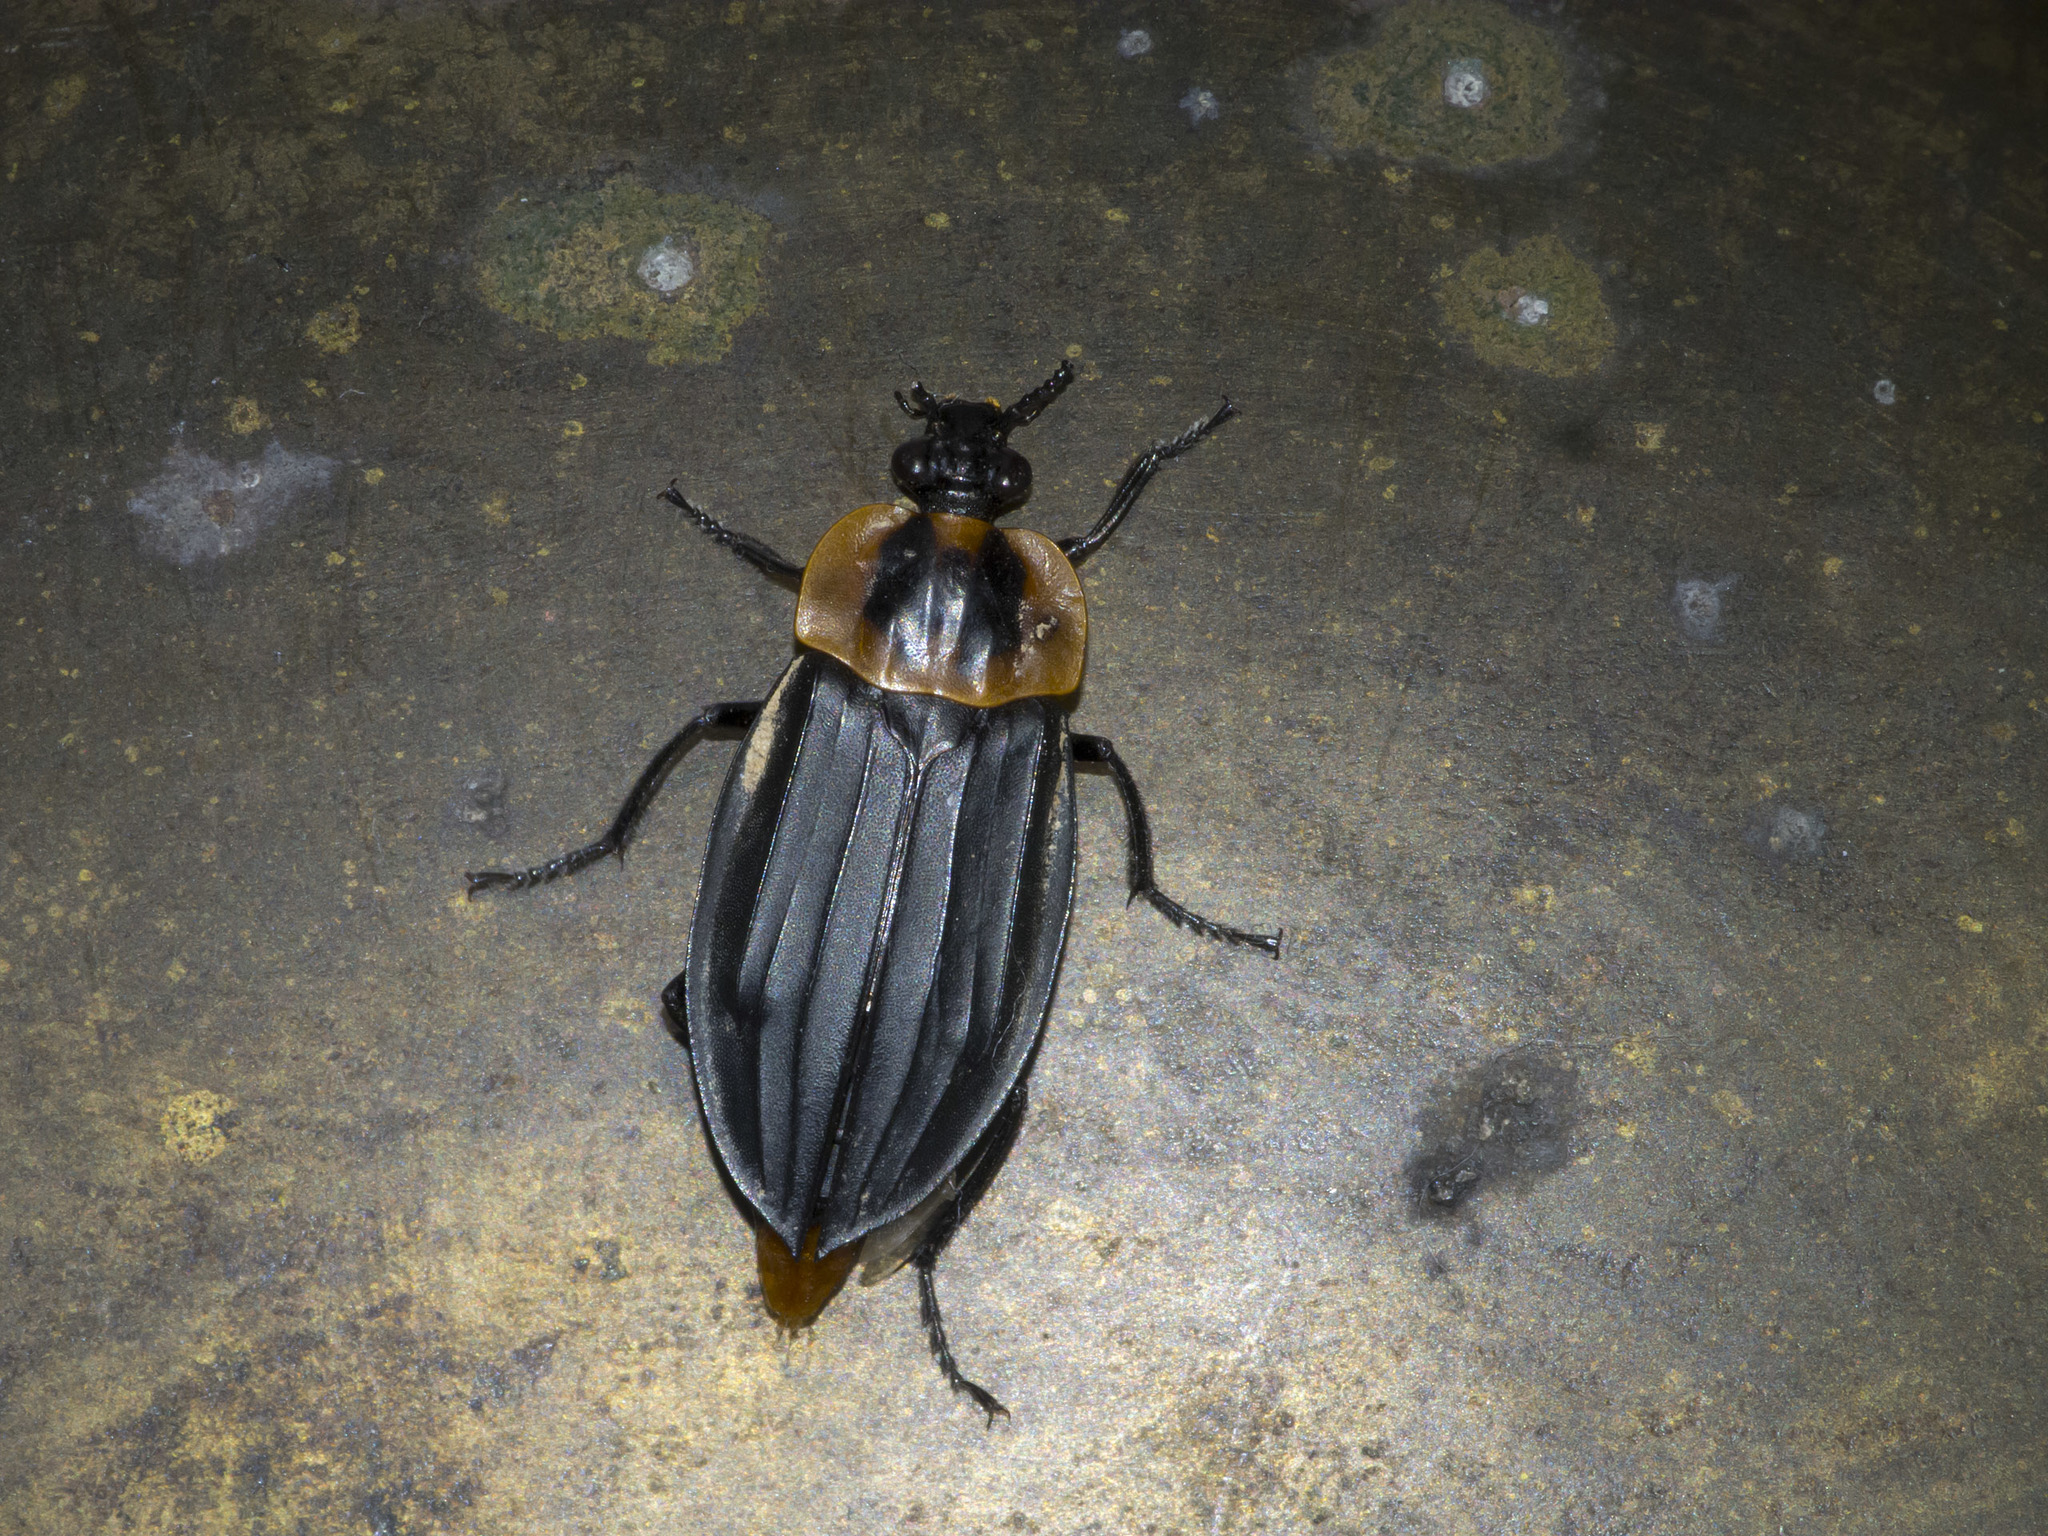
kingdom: Animalia
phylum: Arthropoda
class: Insecta
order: Coleoptera
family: Staphylinidae
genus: Oxelytrum
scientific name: Oxelytrum discicolle
